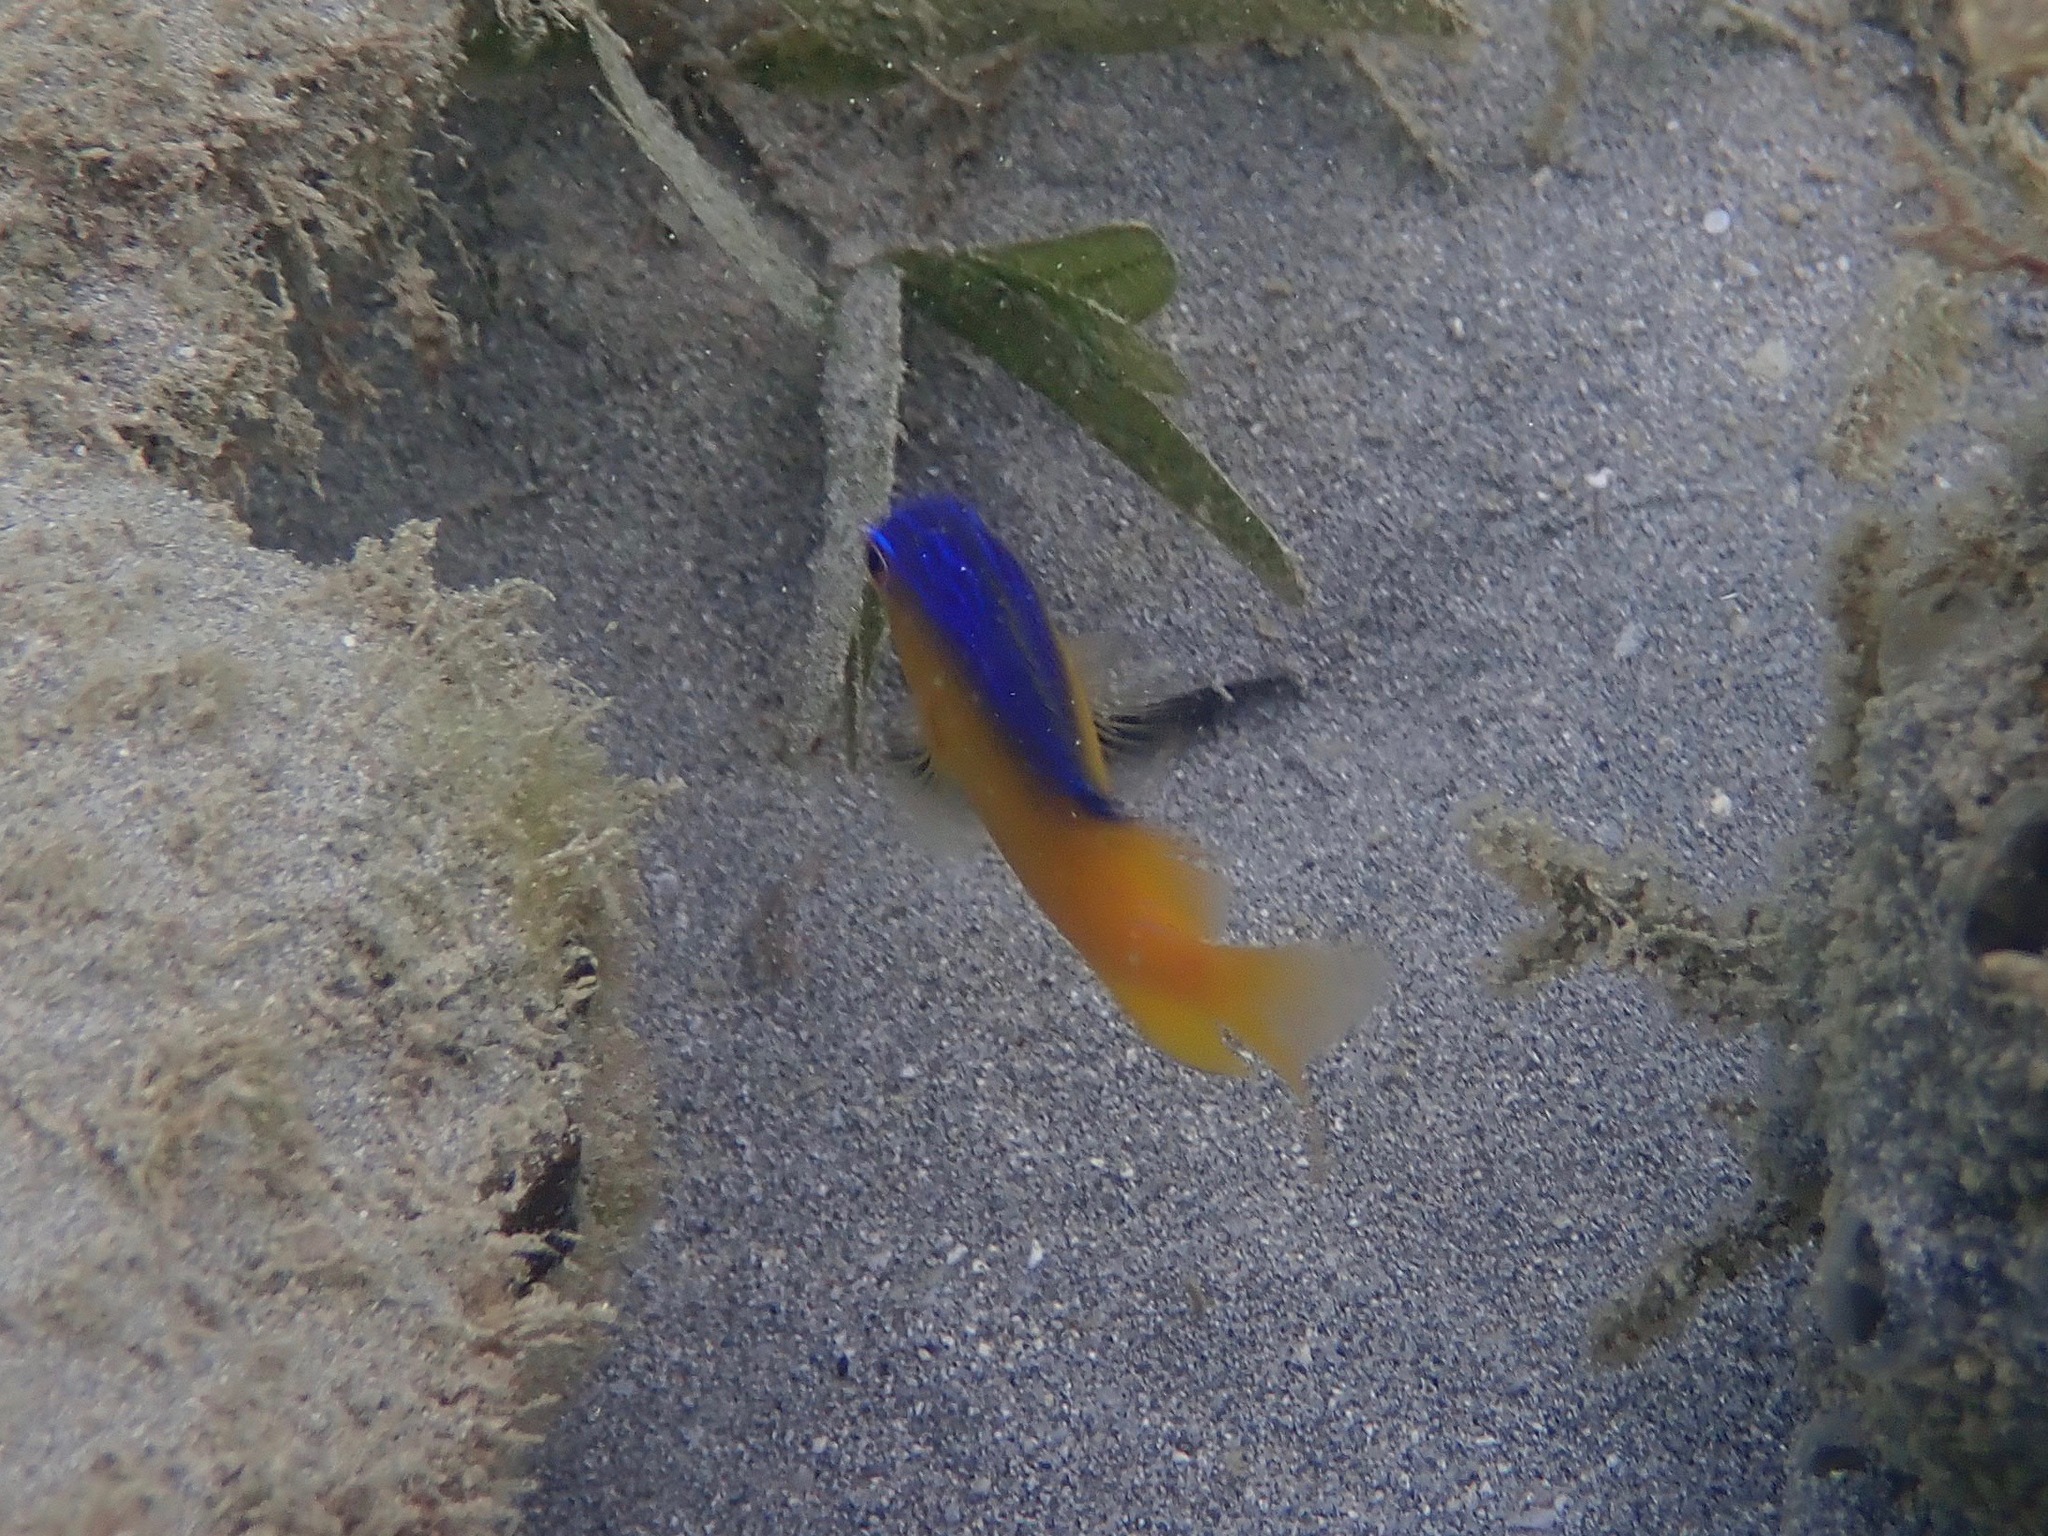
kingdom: Animalia
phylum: Chordata
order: Perciformes
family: Pomacentridae
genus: Stegastes
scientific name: Stegastes leucostictus
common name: Beaugregory
